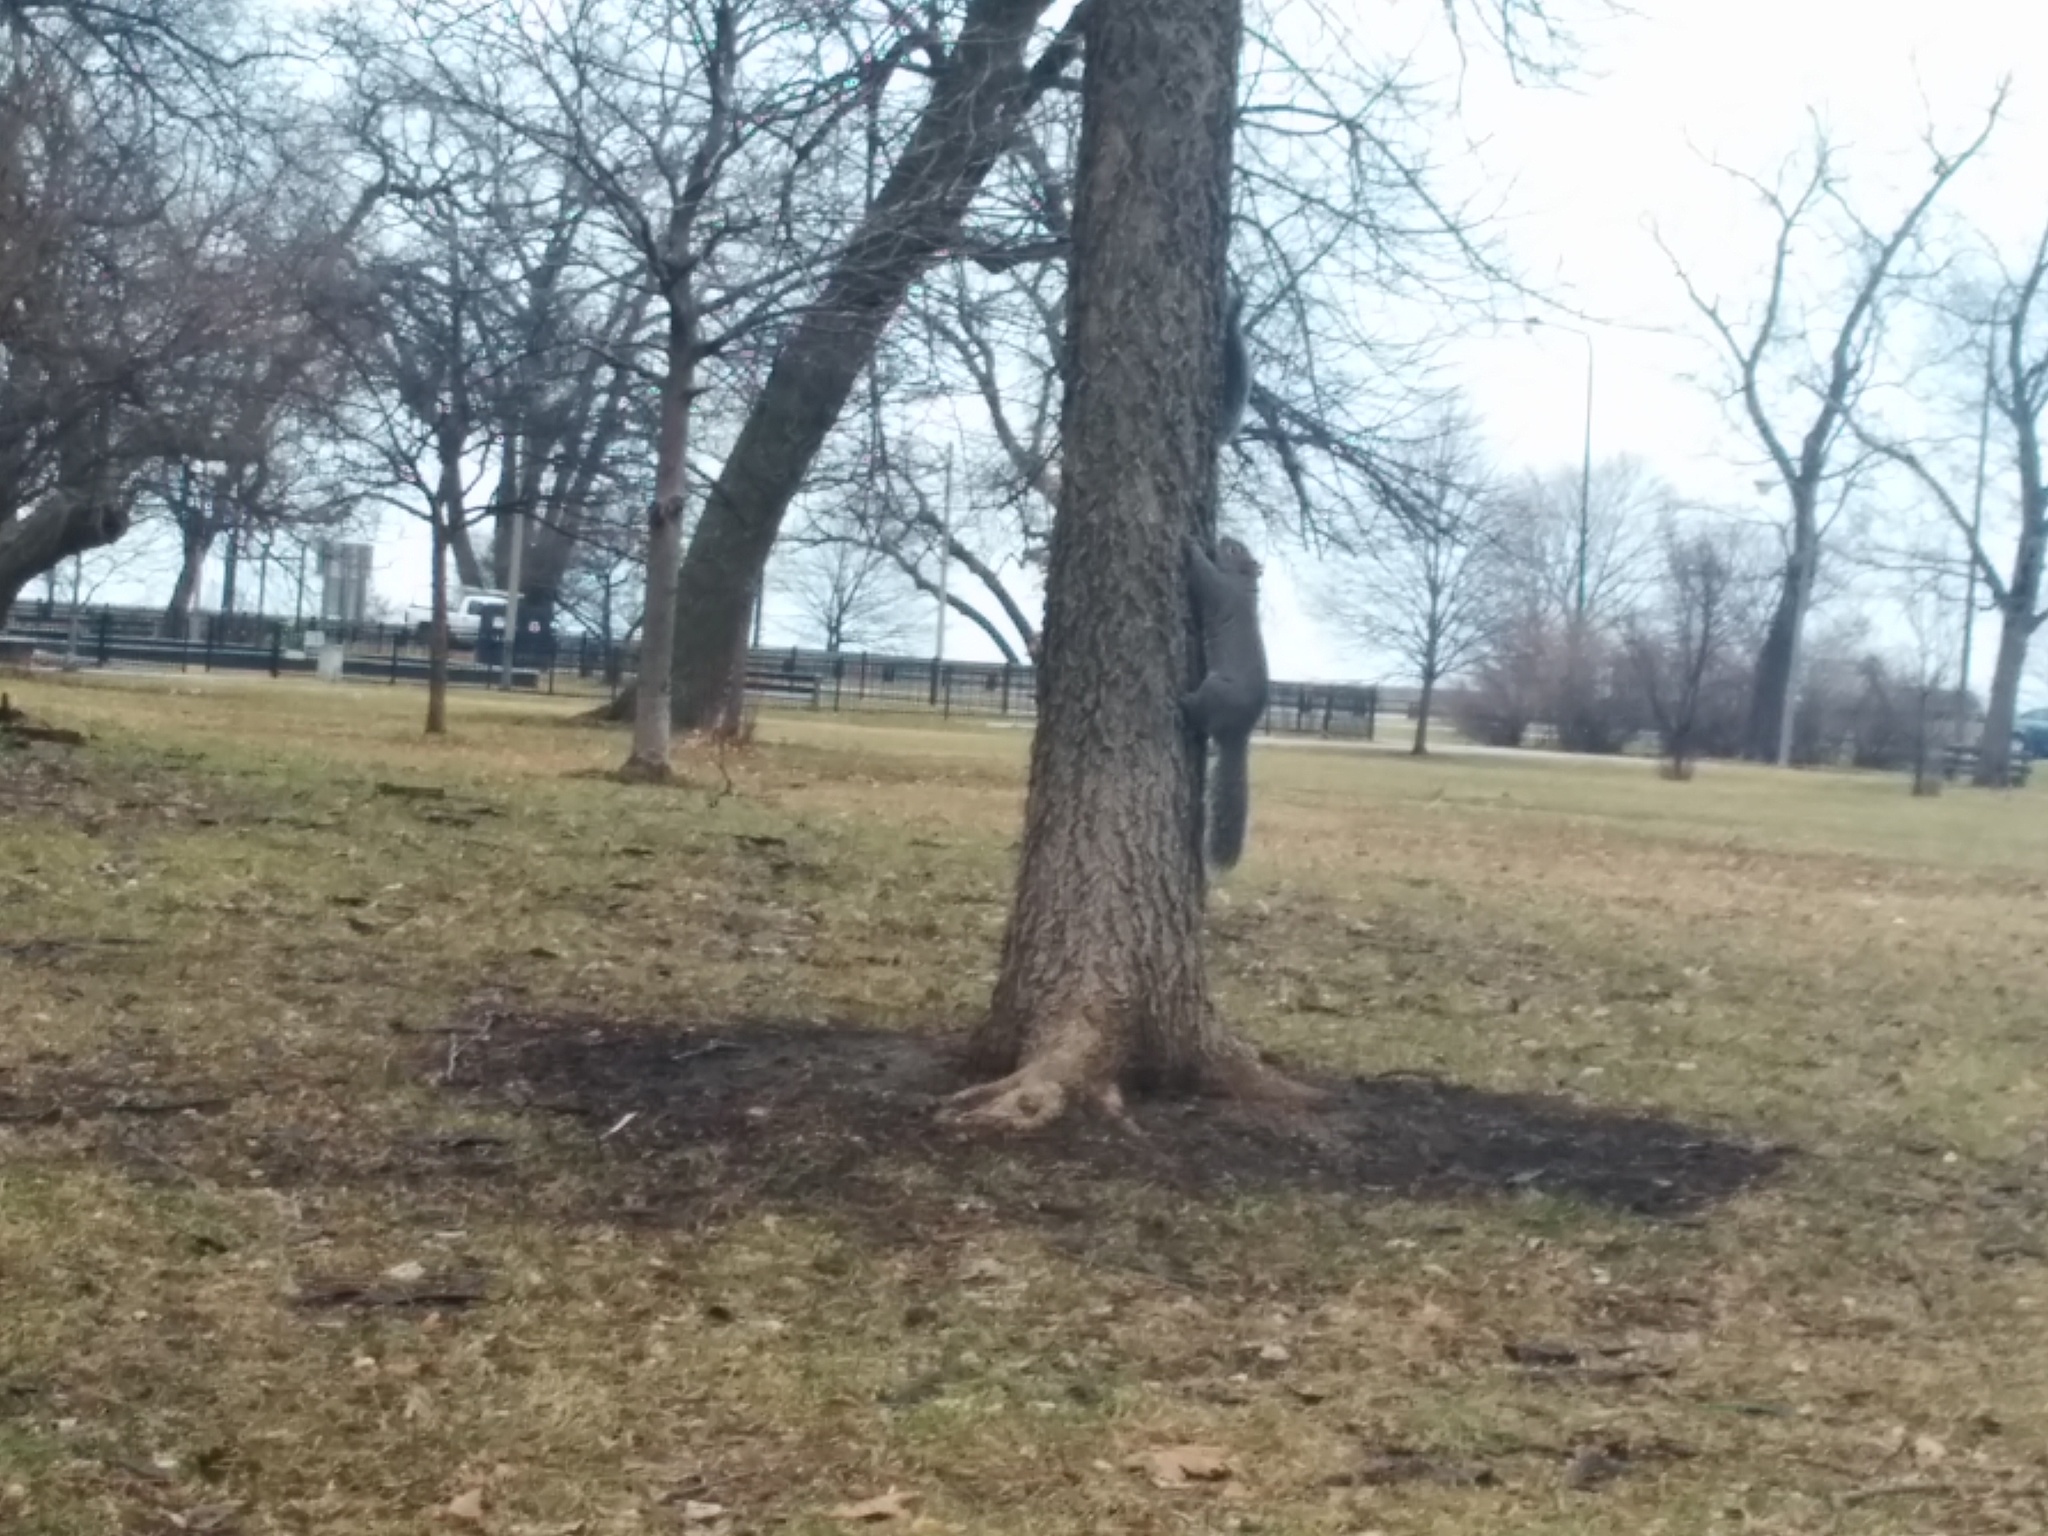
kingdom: Animalia
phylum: Chordata
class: Mammalia
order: Rodentia
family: Sciuridae
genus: Sciurus
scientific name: Sciurus carolinensis
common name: Eastern gray squirrel
